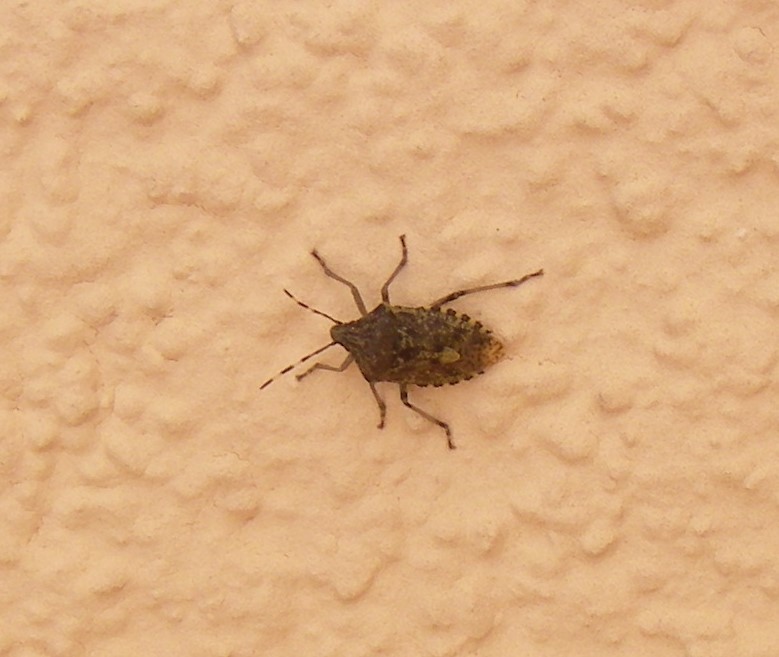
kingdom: Animalia
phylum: Arthropoda
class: Insecta
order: Hemiptera
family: Pentatomidae
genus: Rhaphigaster
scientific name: Rhaphigaster nebulosa
